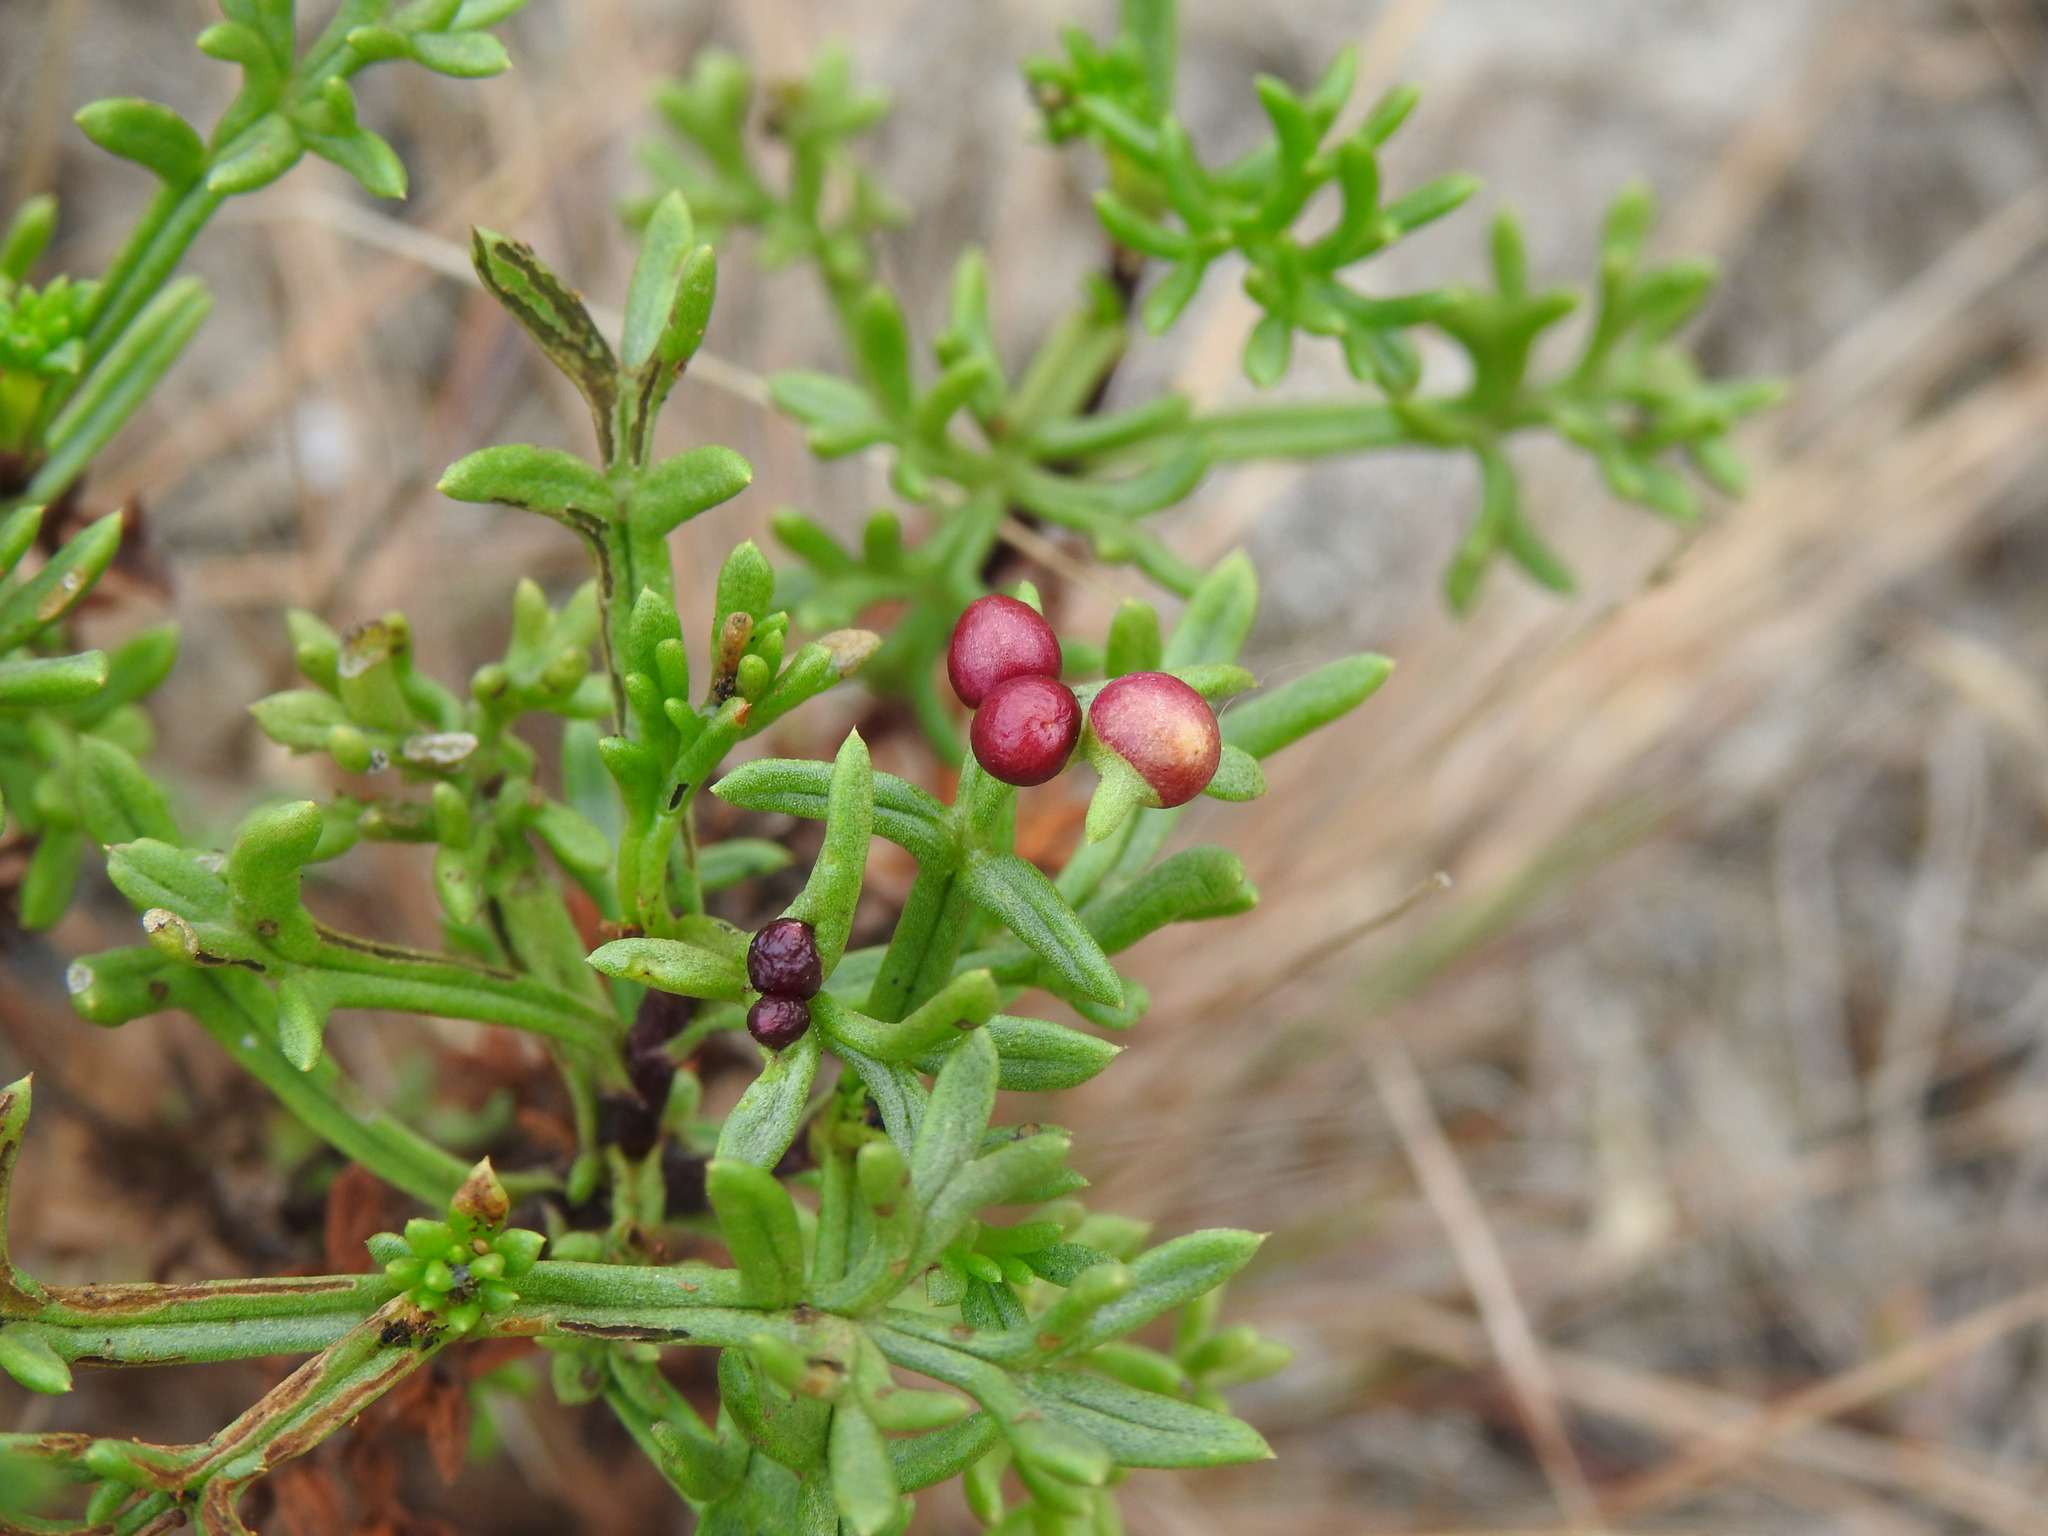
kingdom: Animalia
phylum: Arthropoda
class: Insecta
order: Diptera
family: Cecidomyiidae
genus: Rhopalomyia
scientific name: Rhopalomyia baccarum
